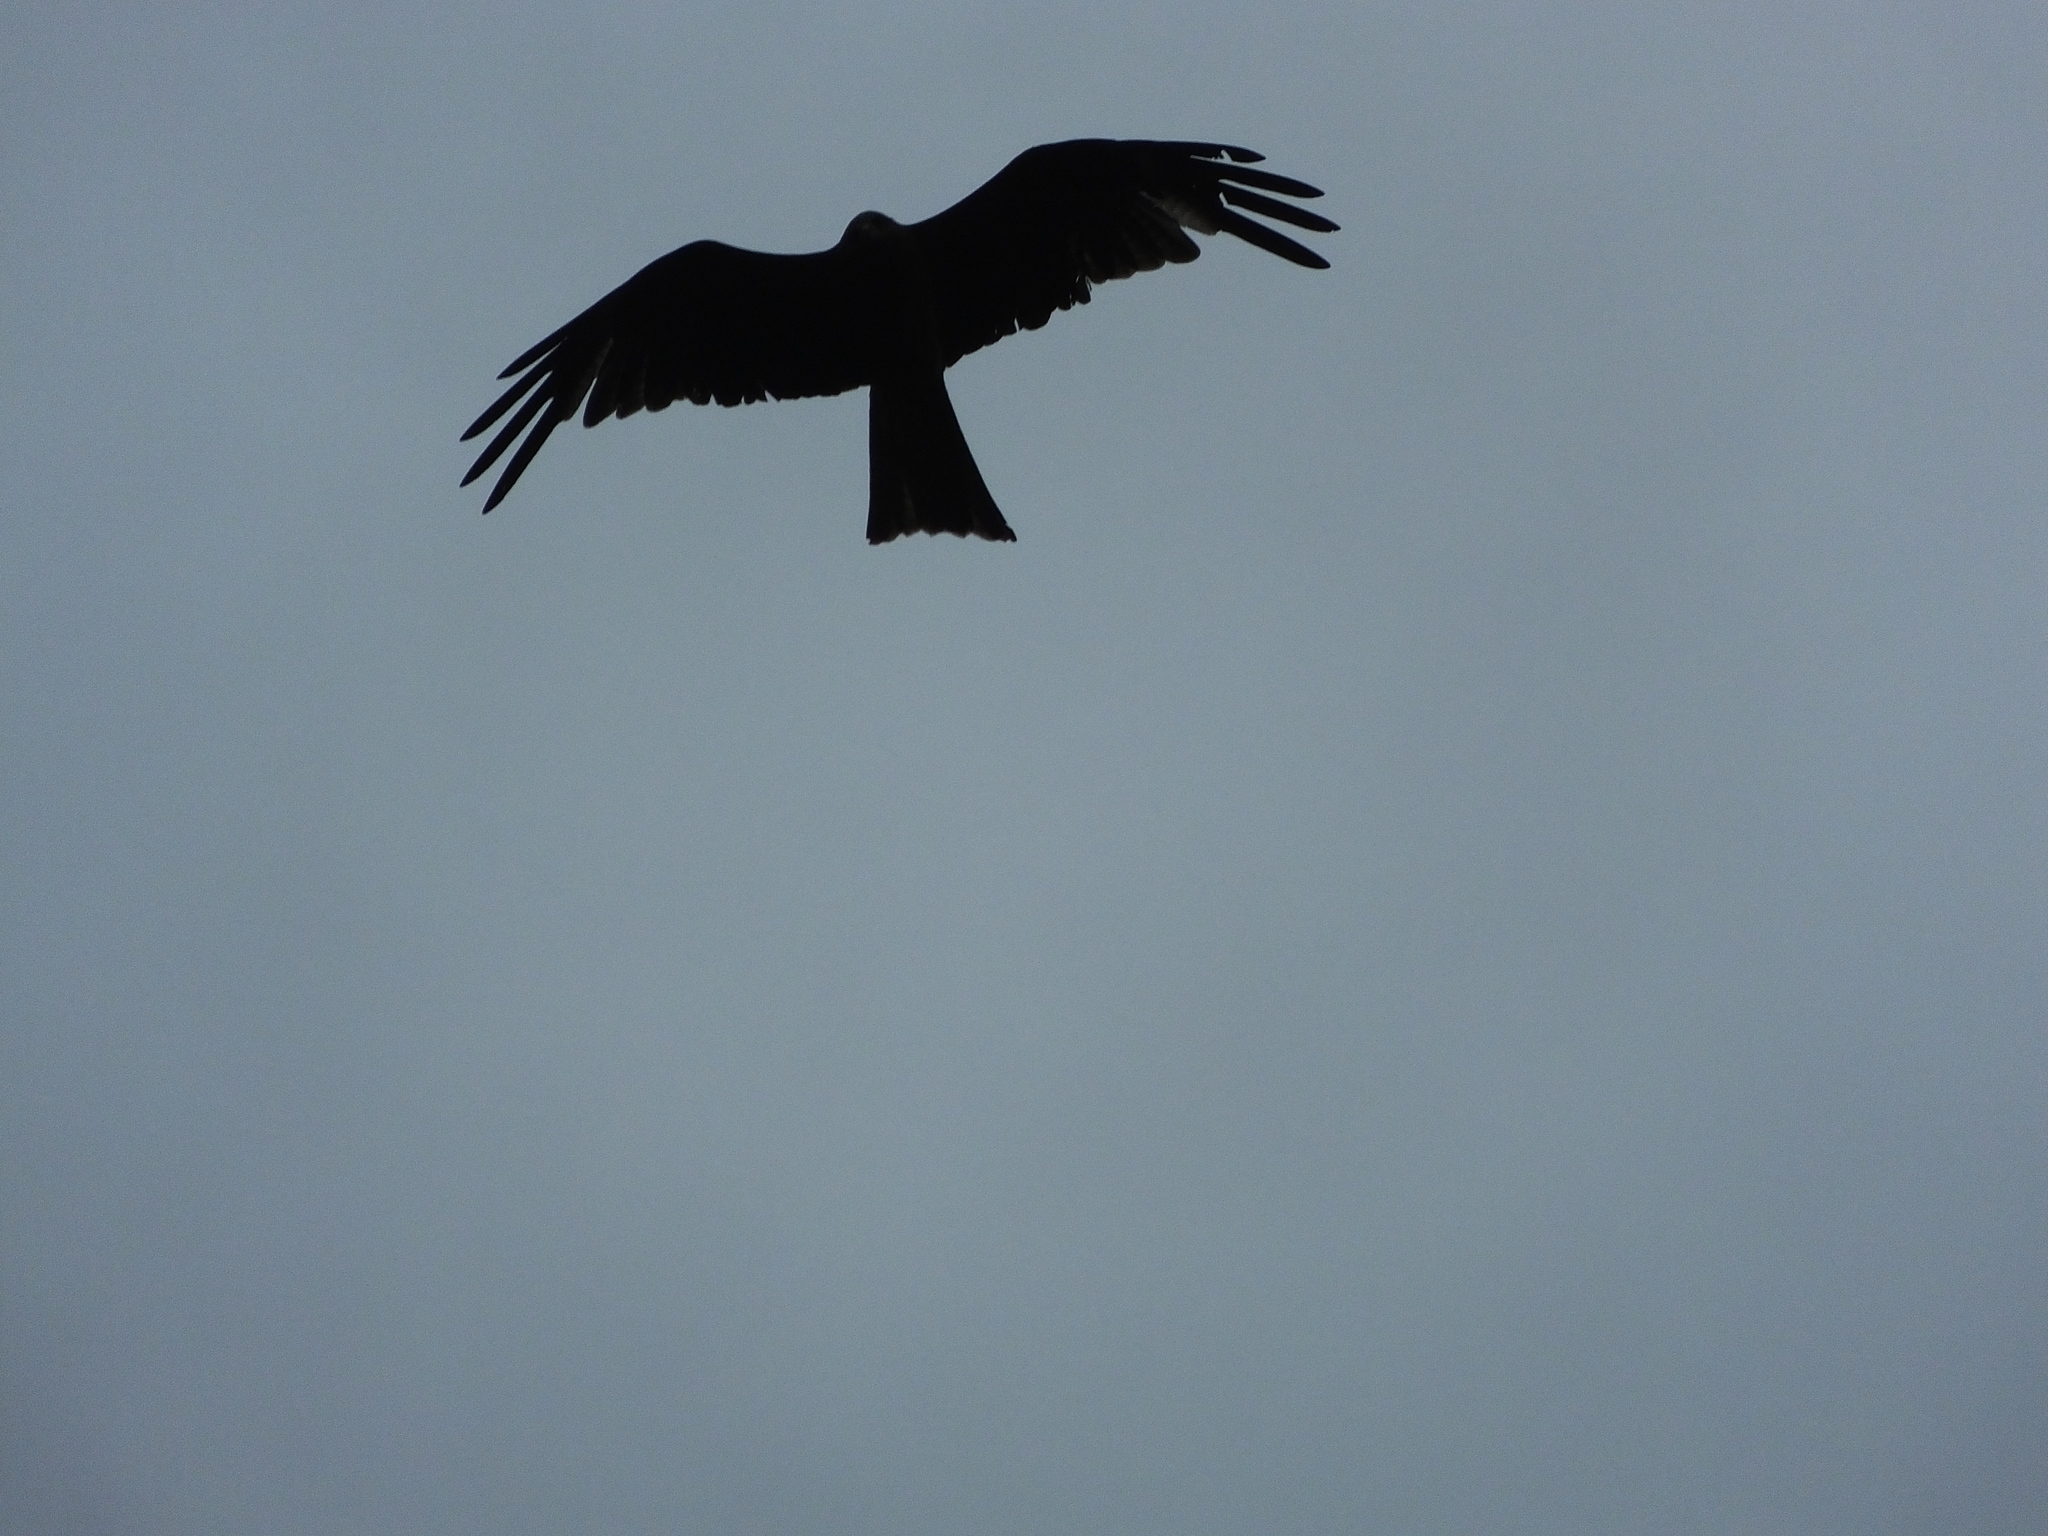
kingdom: Animalia
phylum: Chordata
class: Aves
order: Accipitriformes
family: Accipitridae
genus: Milvus
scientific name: Milvus migrans
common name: Black kite
